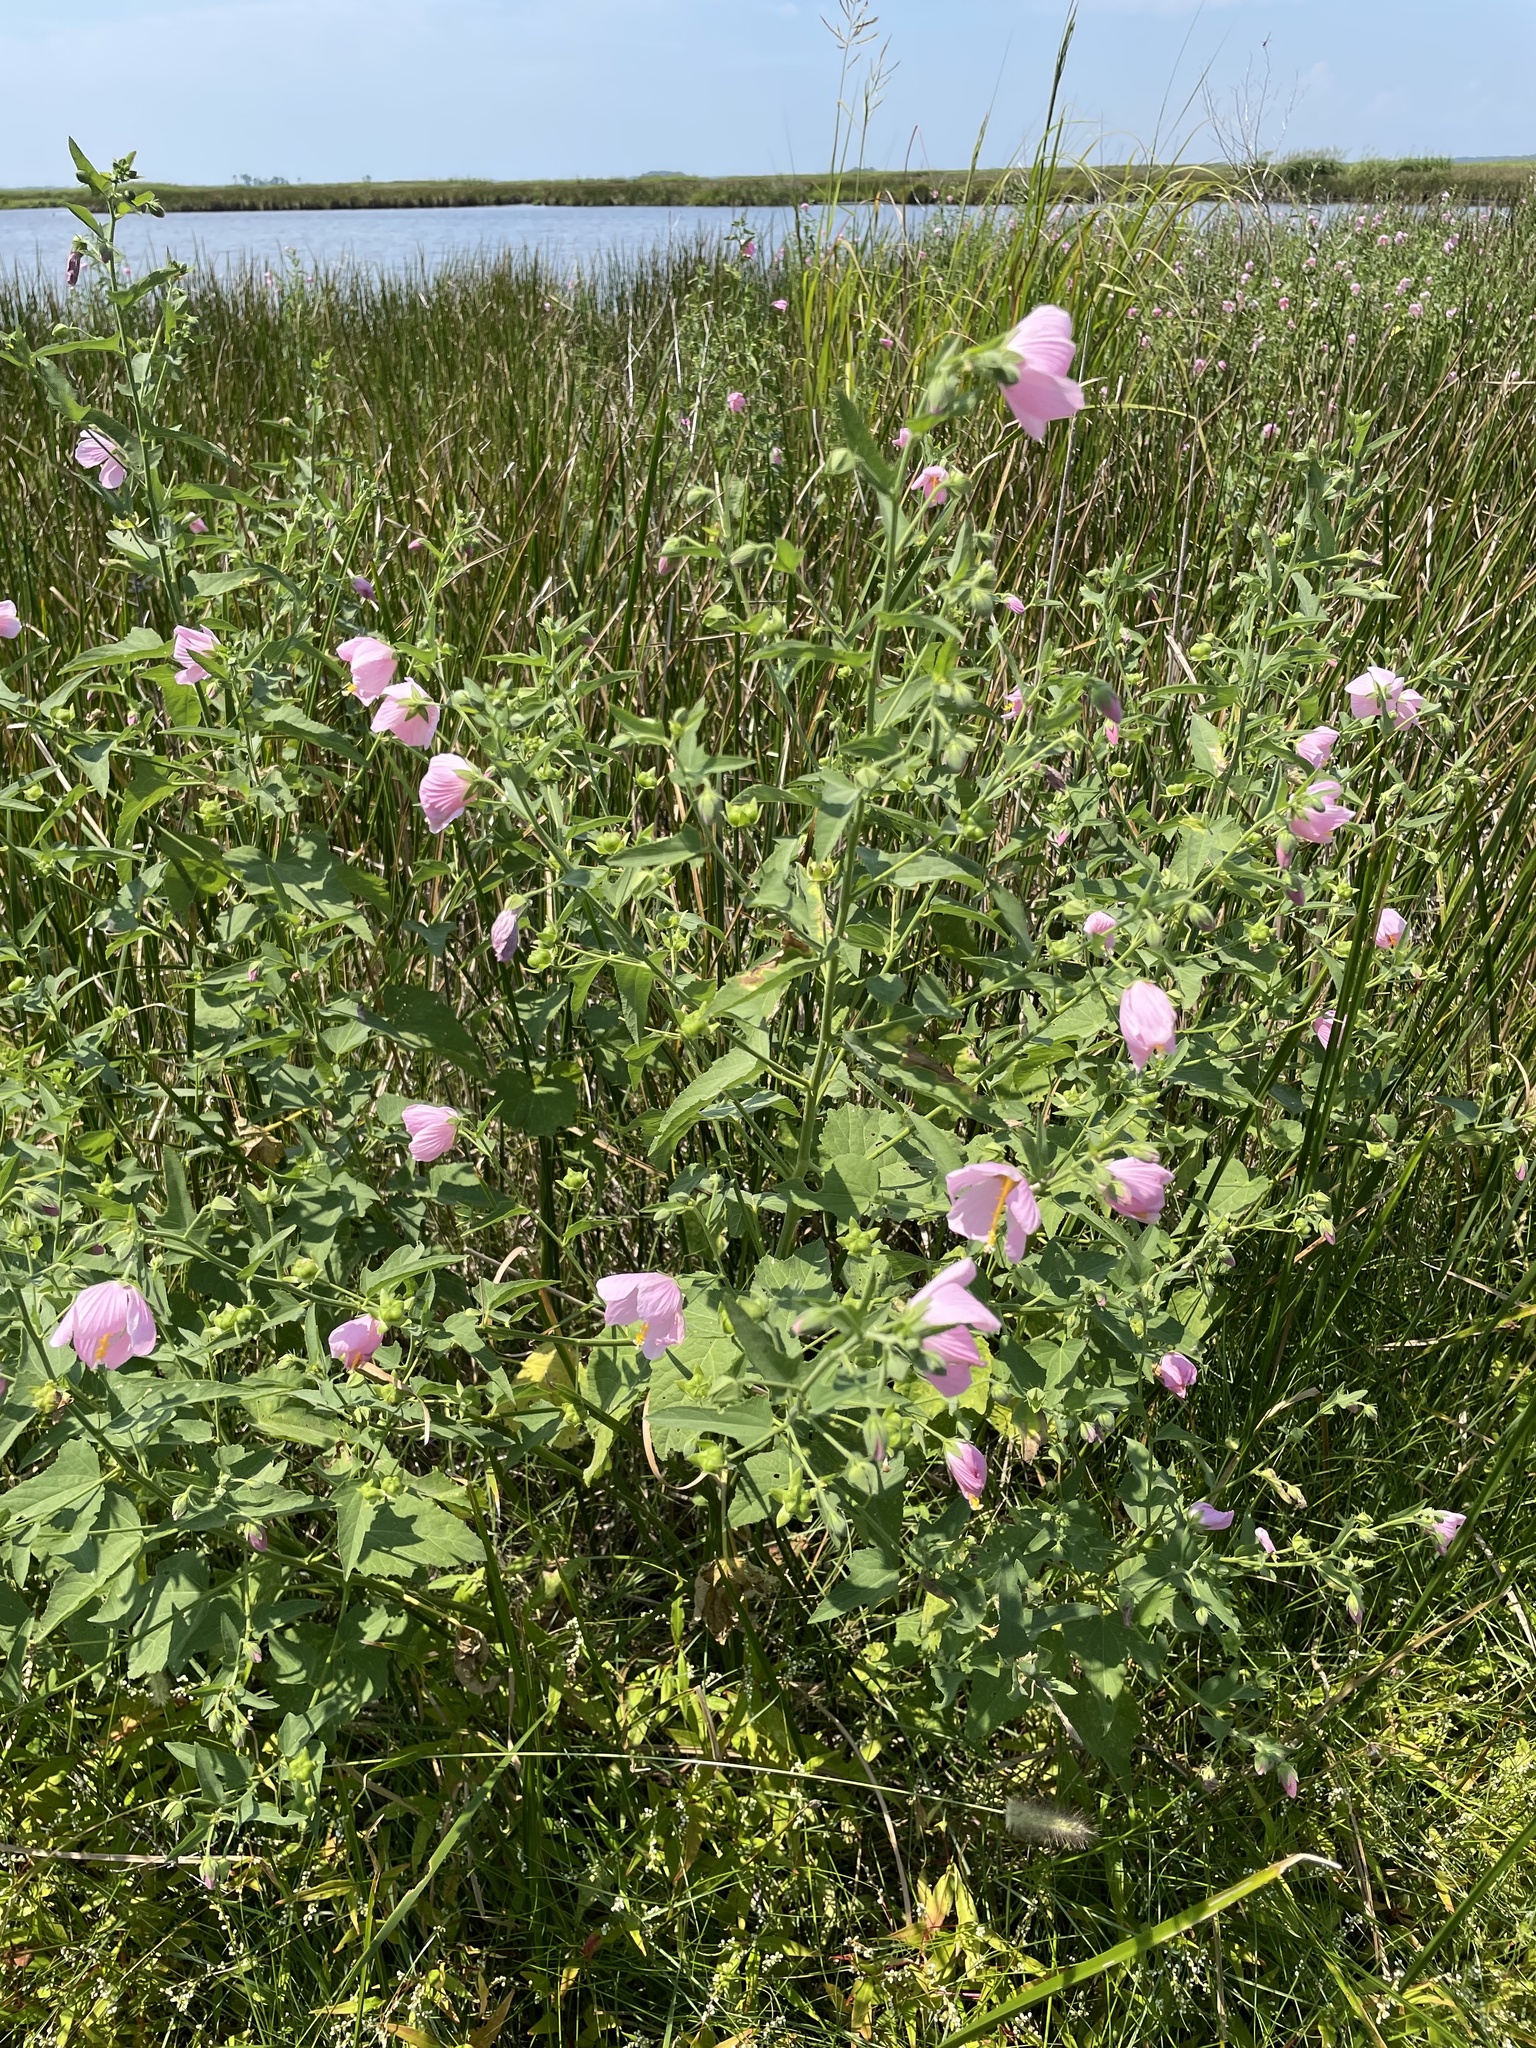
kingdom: Plantae
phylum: Tracheophyta
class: Magnoliopsida
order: Malvales
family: Malvaceae
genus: Kosteletzkya
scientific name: Kosteletzkya pentacarpos
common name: Virginia saltmarsh mallow
